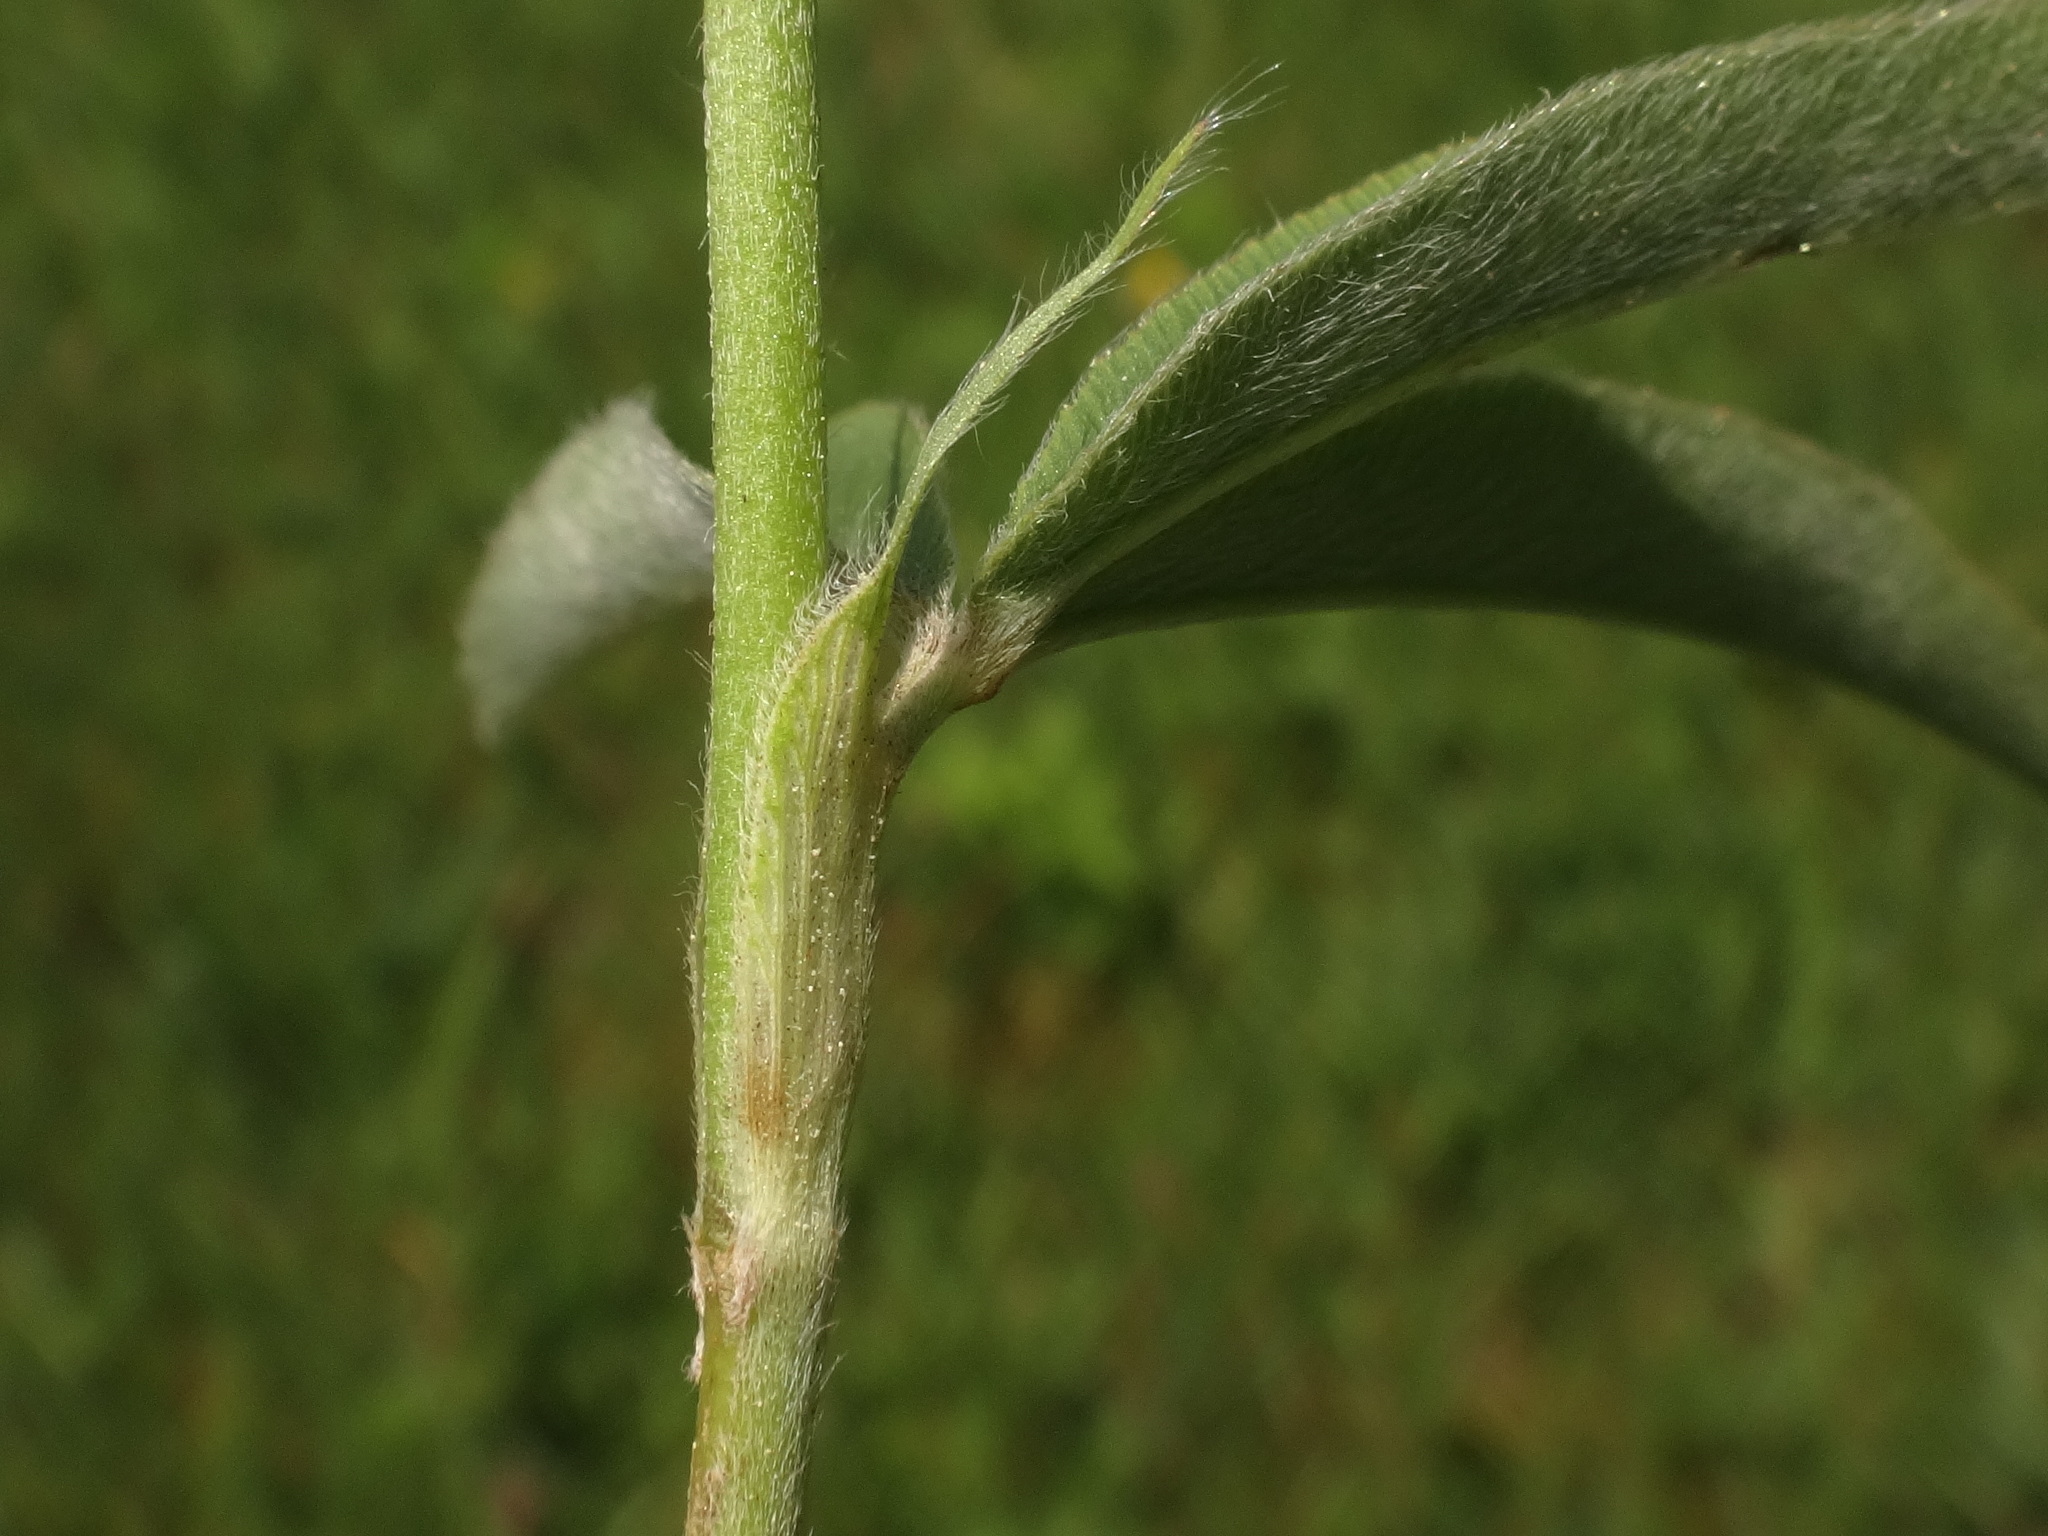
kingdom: Plantae
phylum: Tracheophyta
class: Magnoliopsida
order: Fabales
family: Fabaceae
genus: Trifolium
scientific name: Trifolium alpestre
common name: Owl-head clover
